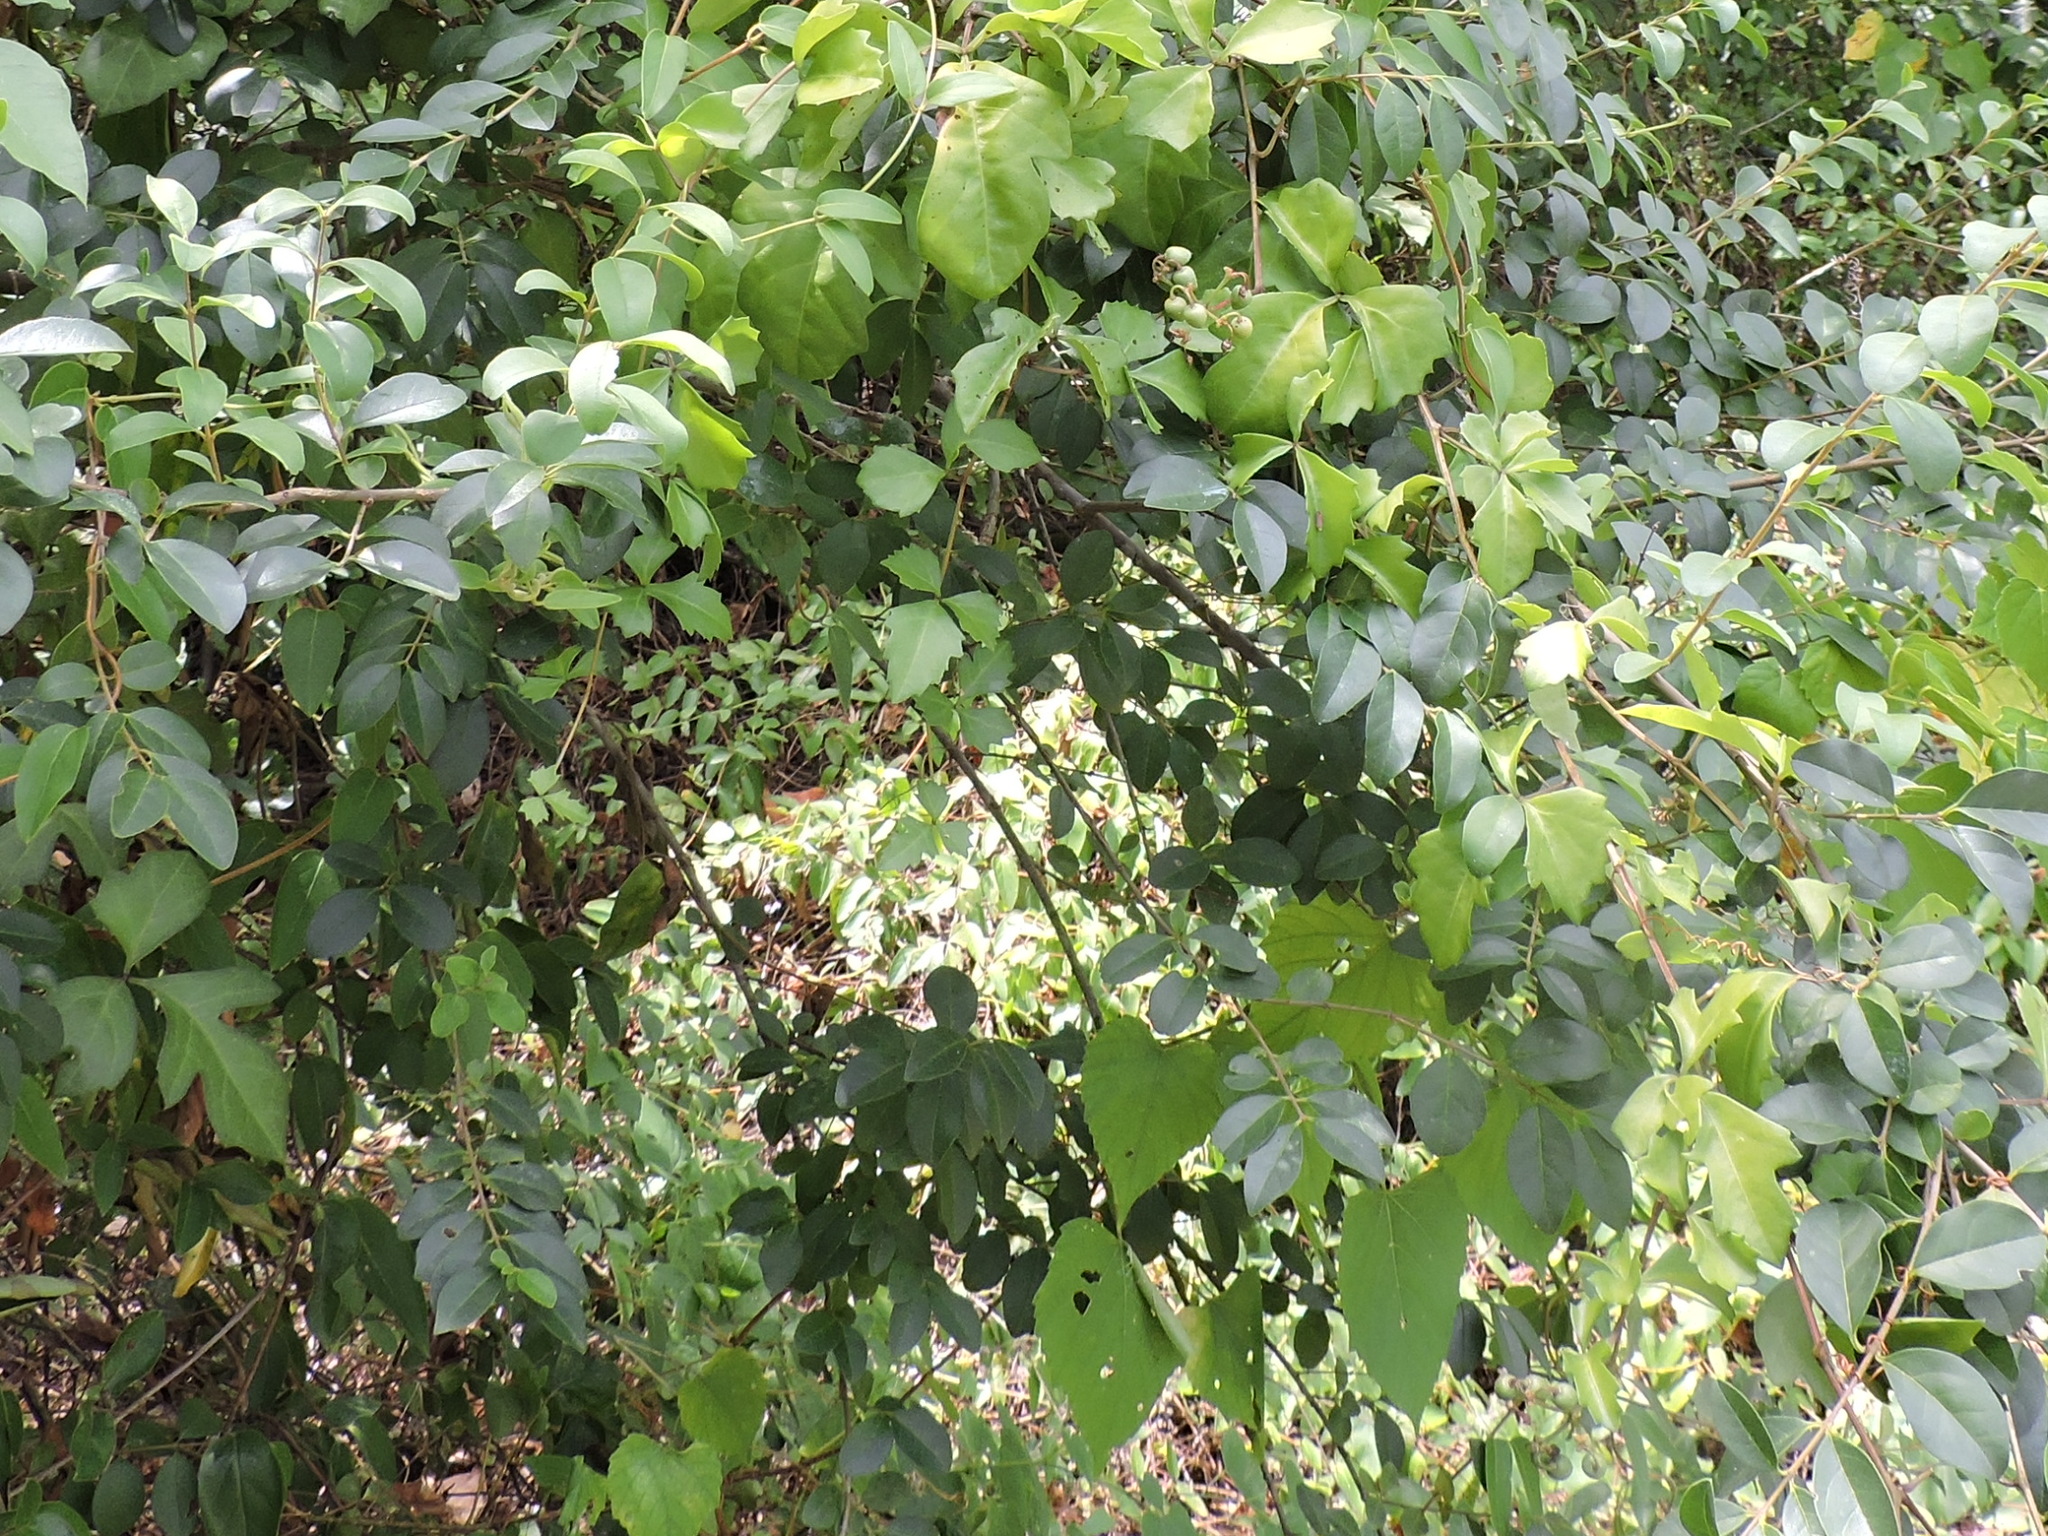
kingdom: Plantae
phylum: Tracheophyta
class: Magnoliopsida
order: Vitales
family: Vitaceae
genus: Cissus
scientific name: Cissus trifoliata
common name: Vine-sorrel
